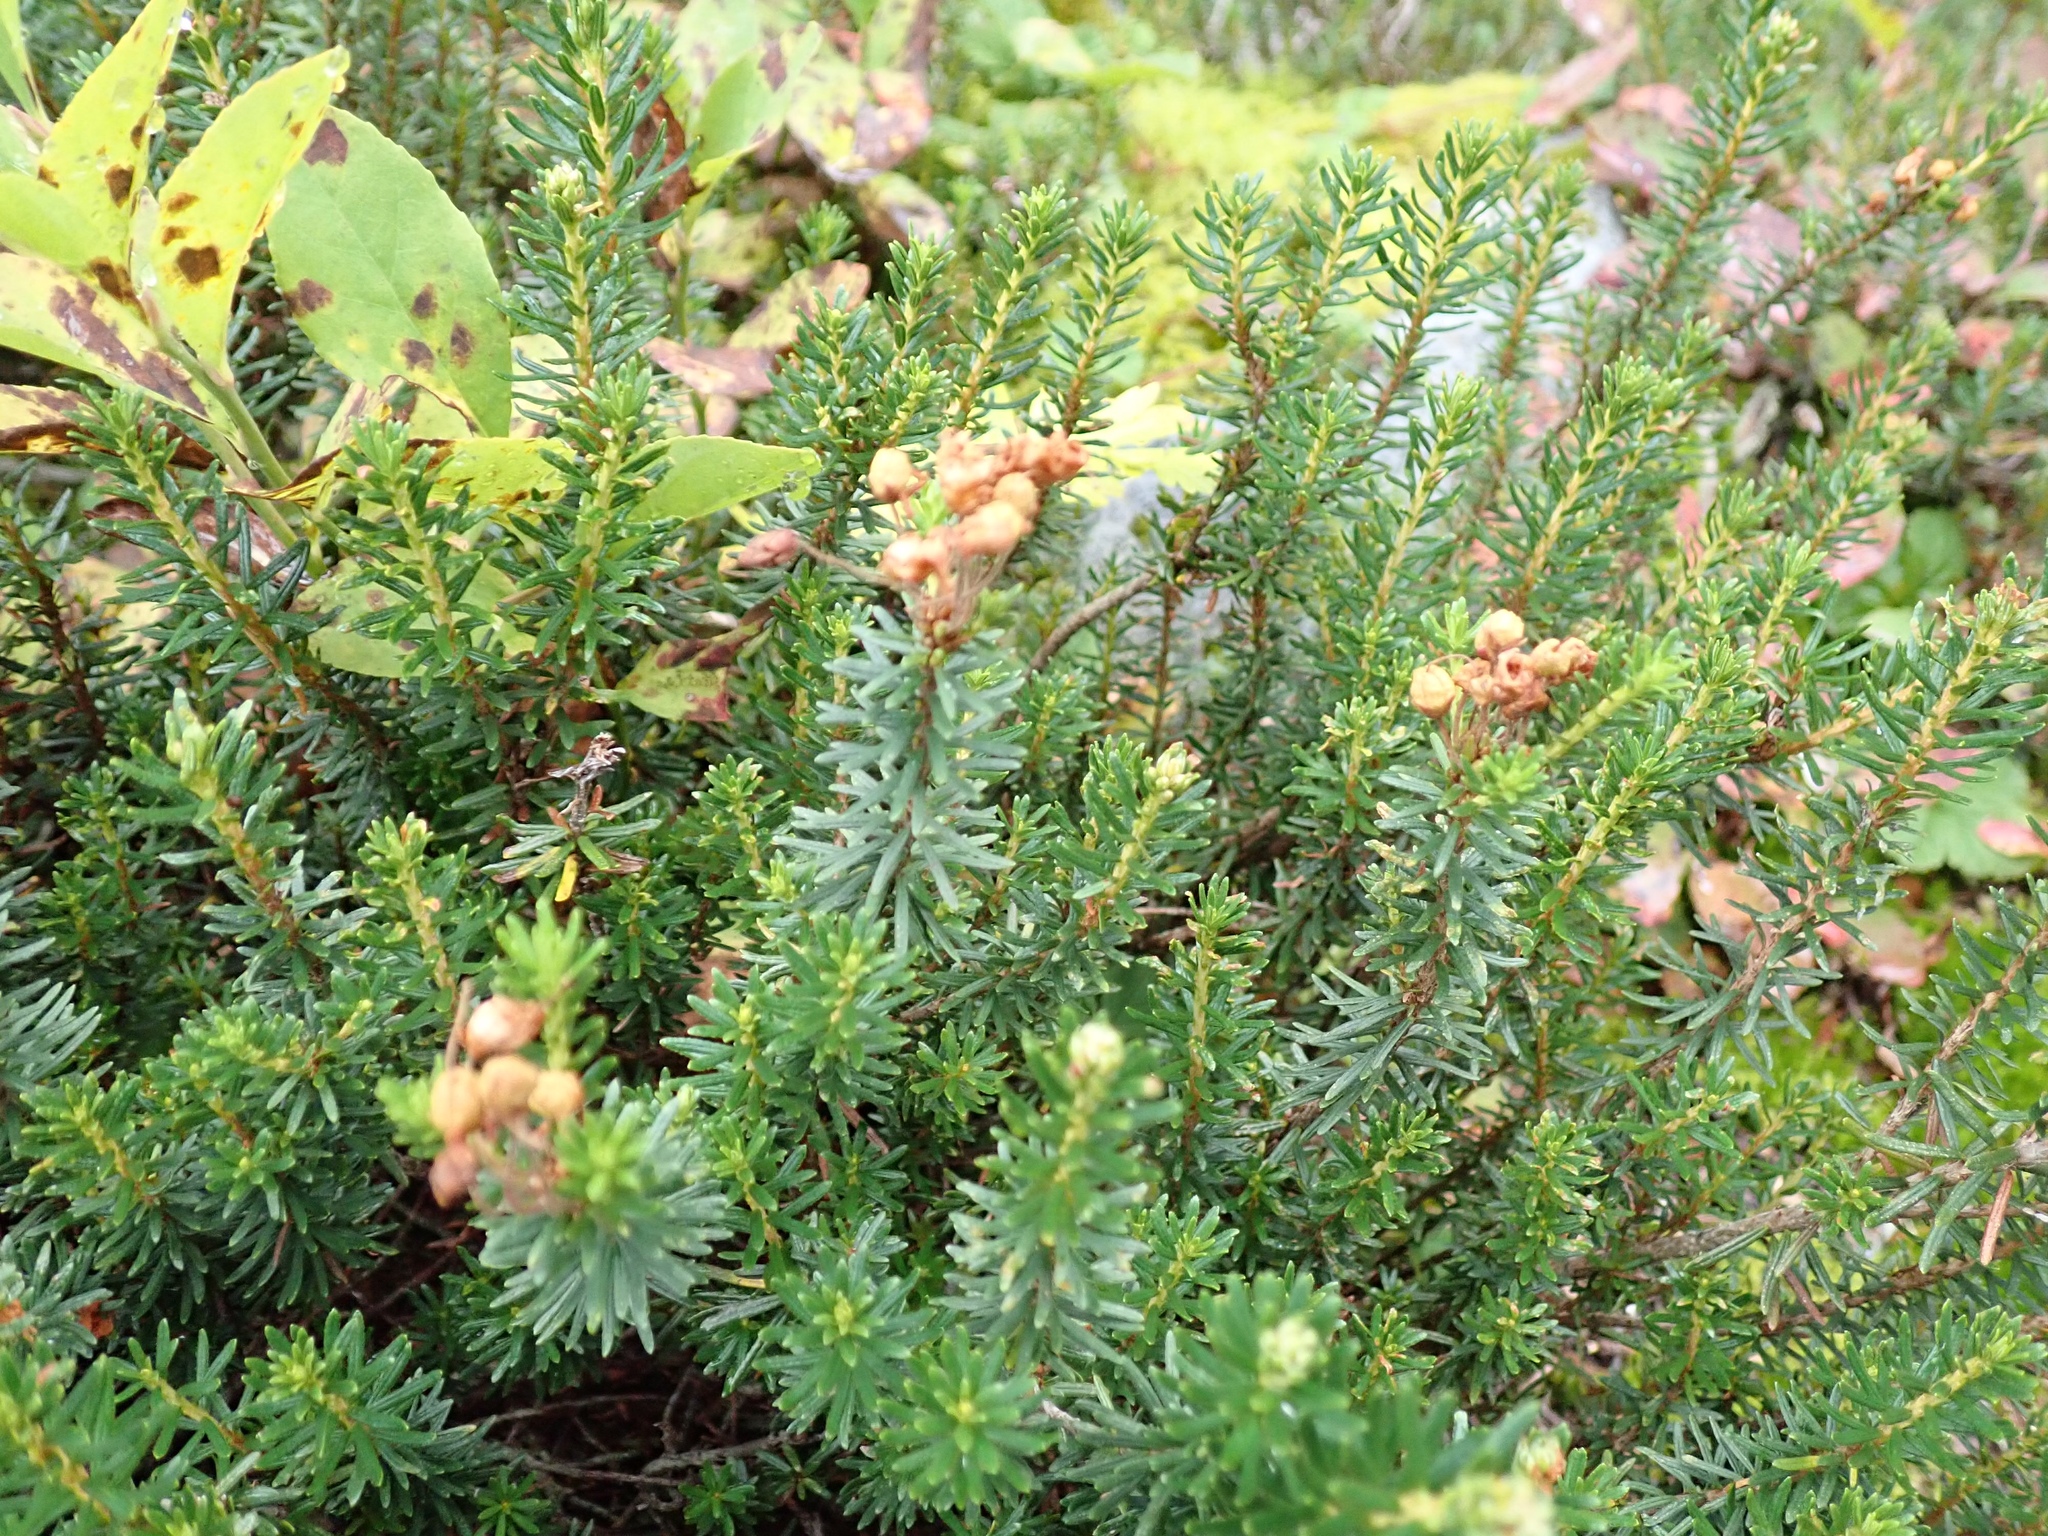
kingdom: Plantae
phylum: Tracheophyta
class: Magnoliopsida
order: Ericales
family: Ericaceae
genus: Phyllodoce
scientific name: Phyllodoce empetriformis
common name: Pink mountain heather
